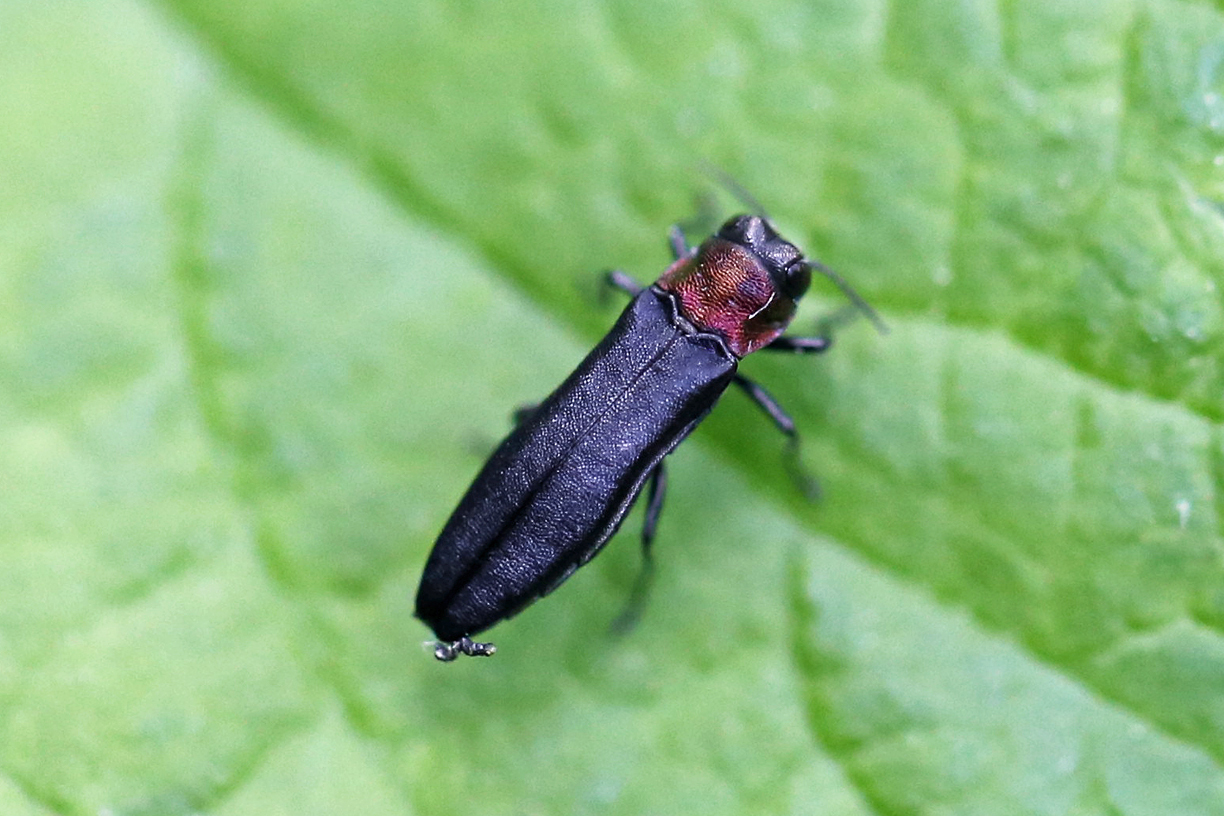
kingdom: Animalia
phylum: Arthropoda
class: Insecta
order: Coleoptera
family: Buprestidae
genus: Agrilus
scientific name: Agrilus ruficollis
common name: Red-necked cane borer beetle
